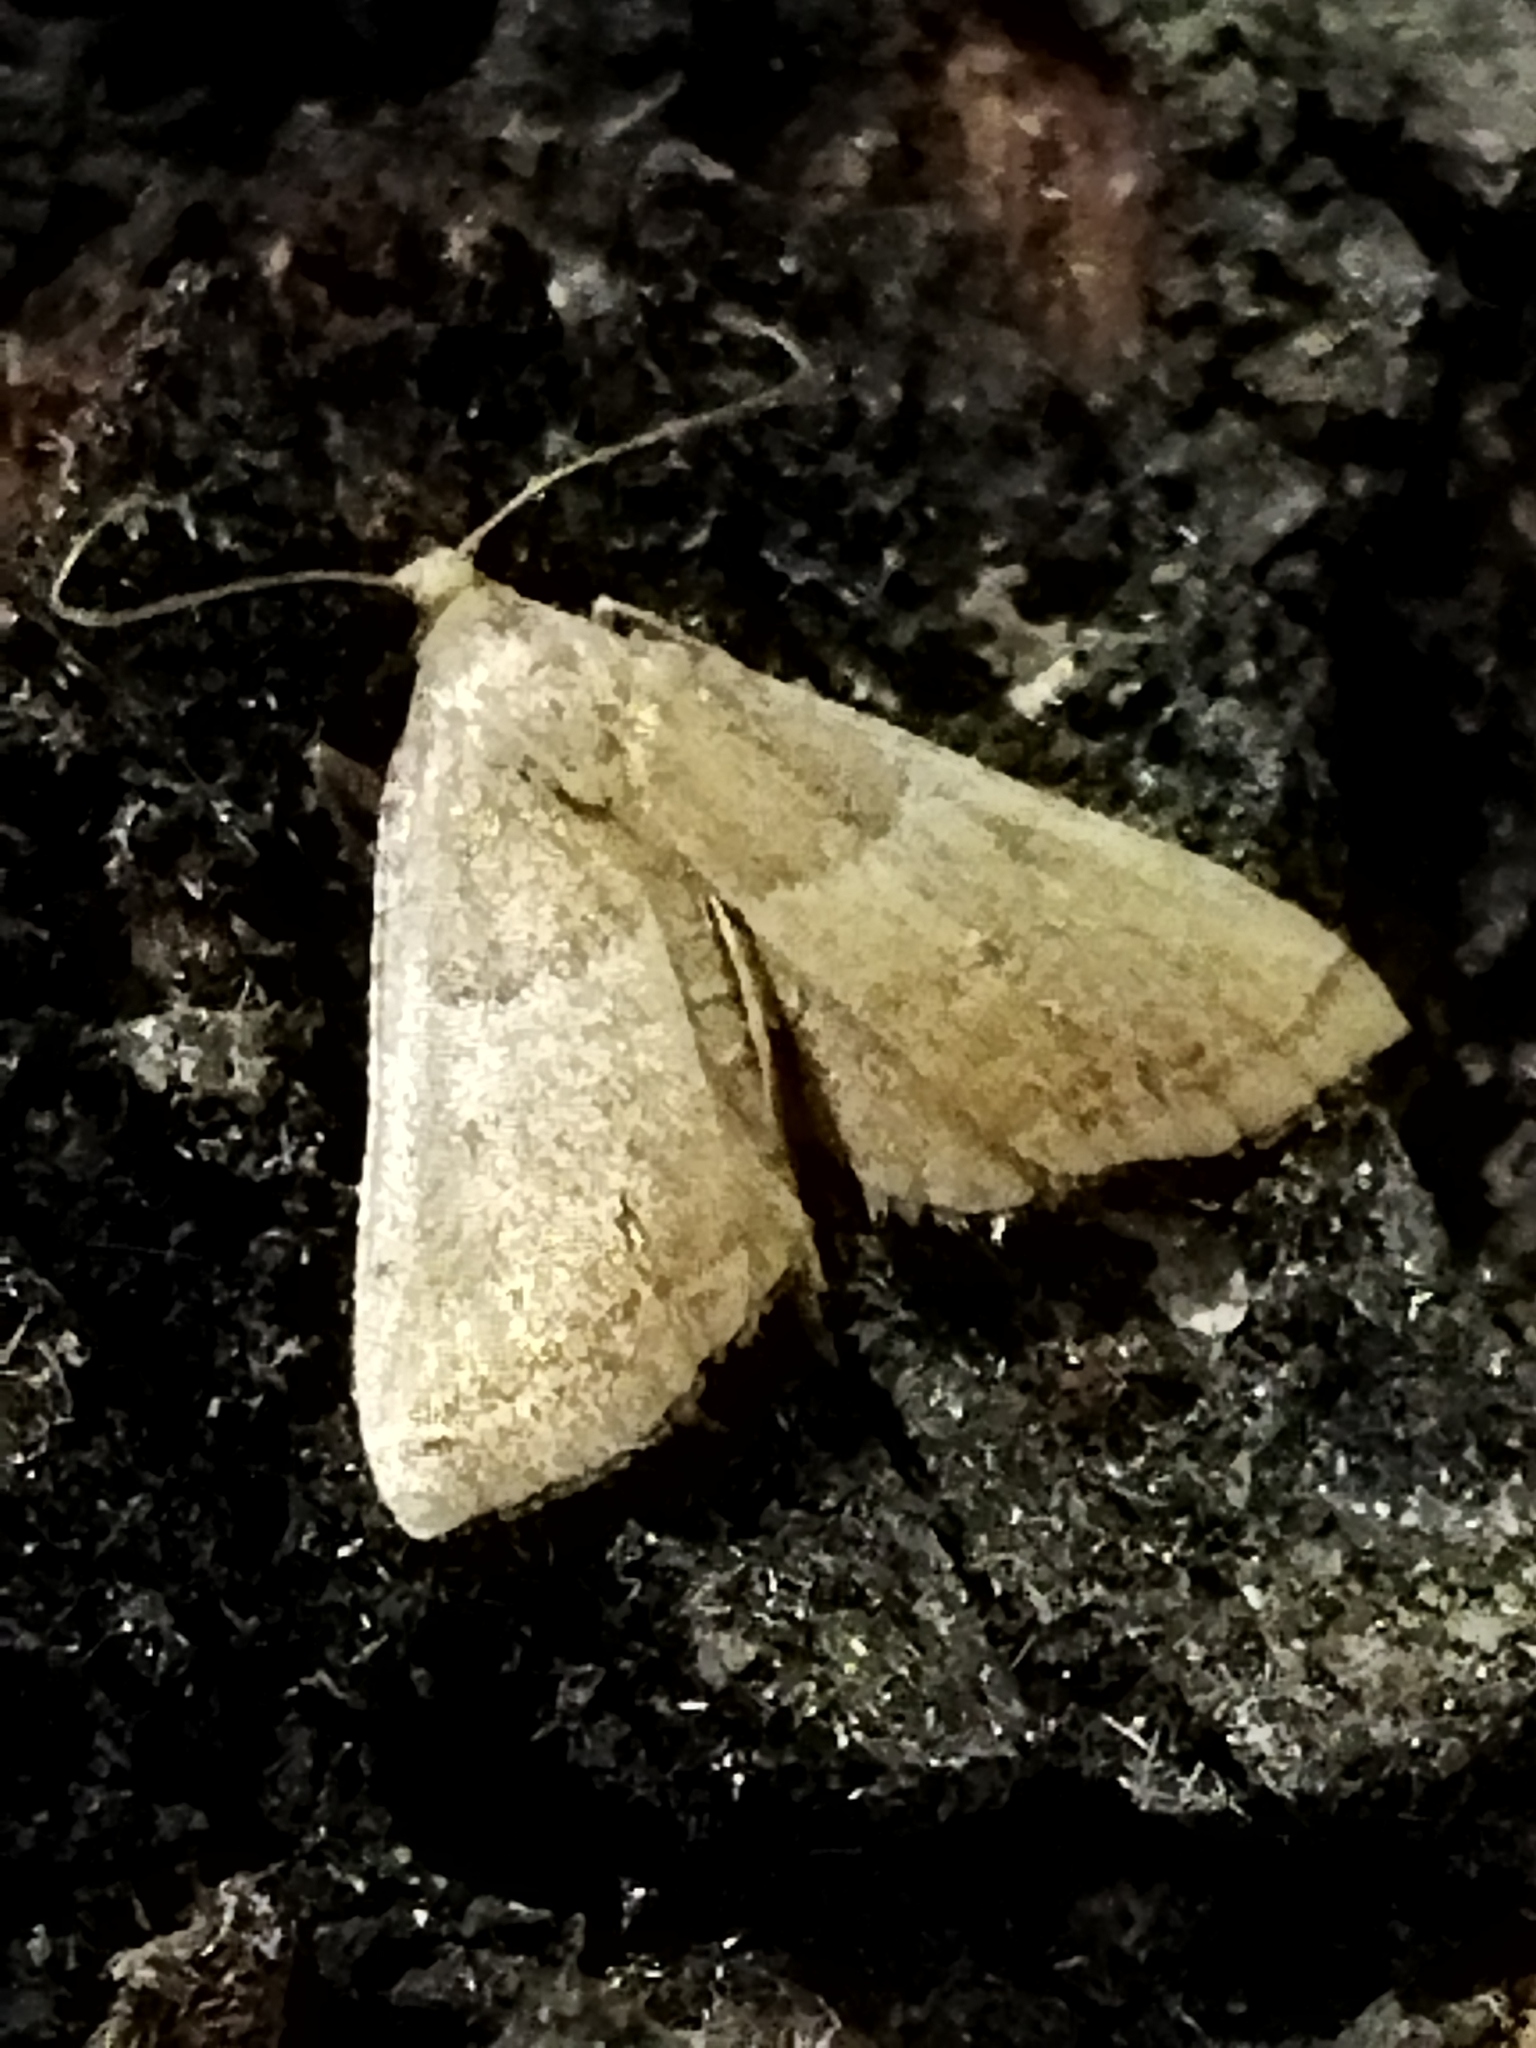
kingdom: Animalia
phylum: Arthropoda
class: Insecta
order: Lepidoptera
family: Pyralidae
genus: Endotricha
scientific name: Endotricha flammealis
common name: Rosy tabby
